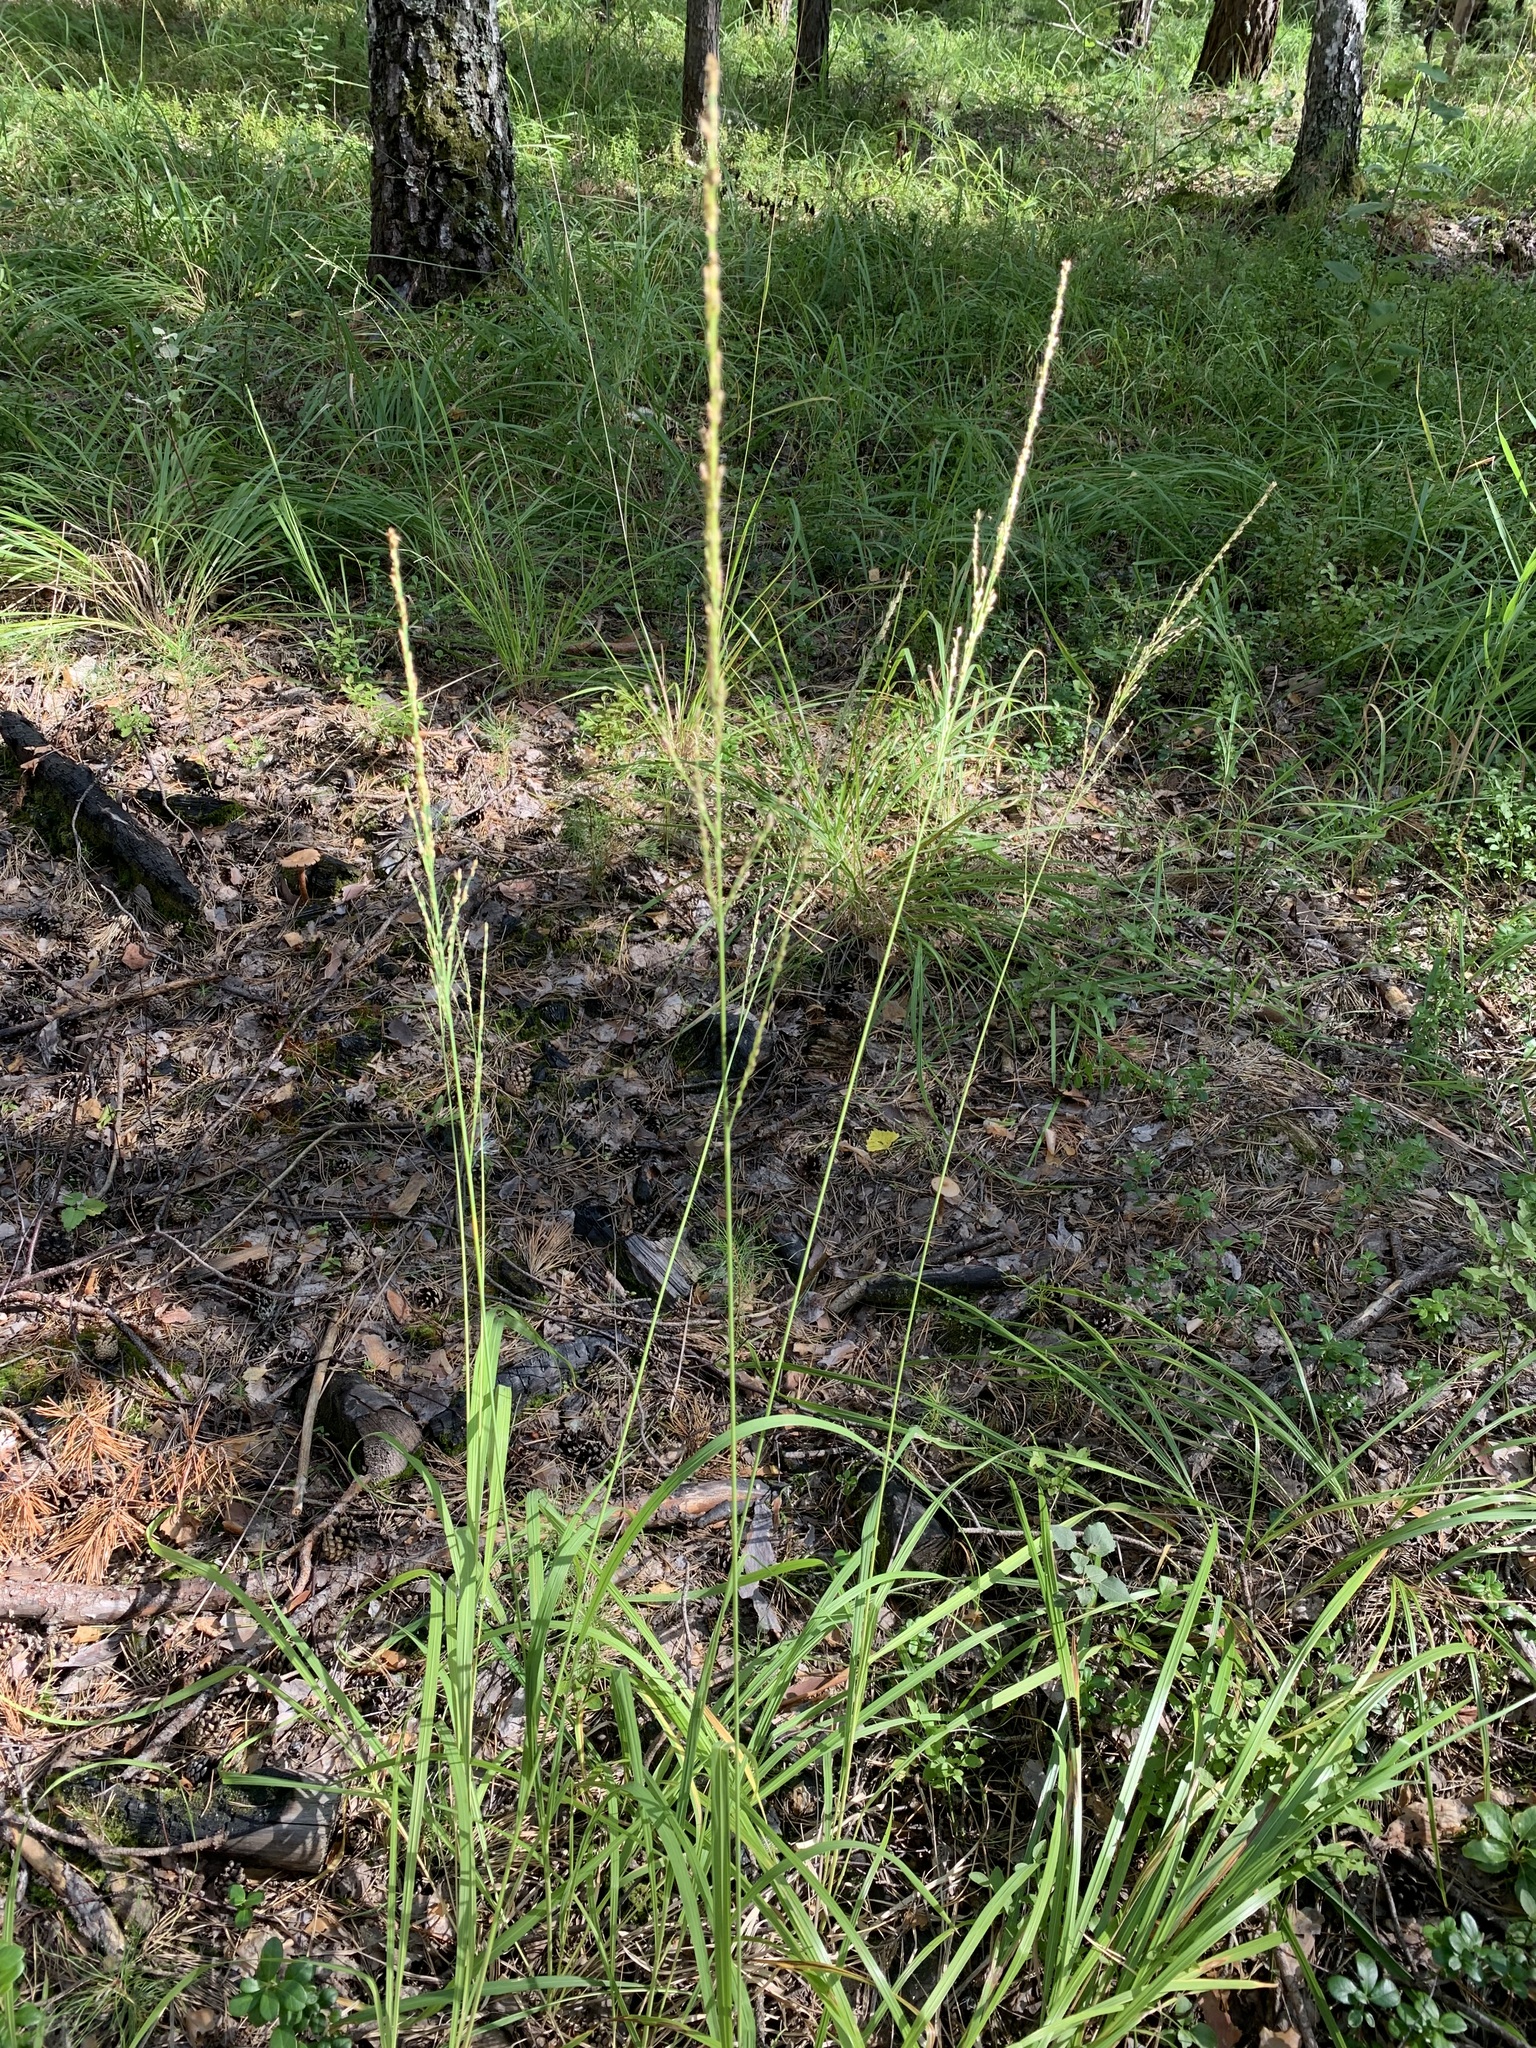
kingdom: Plantae
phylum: Tracheophyta
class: Liliopsida
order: Poales
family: Poaceae
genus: Molinia
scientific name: Molinia caerulea
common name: Purple moor-grass
